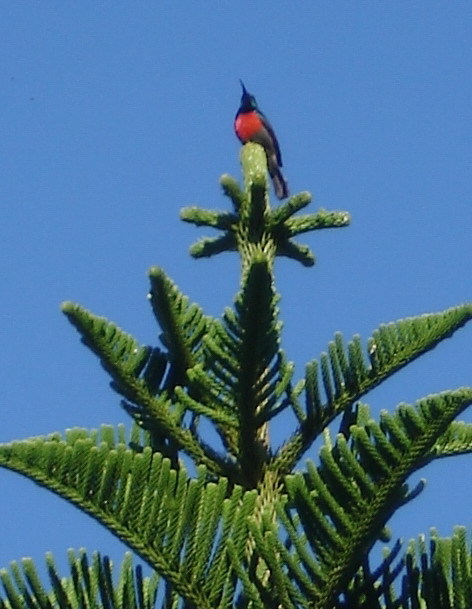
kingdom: Animalia
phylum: Chordata
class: Aves
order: Passeriformes
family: Nectariniidae
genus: Cinnyris
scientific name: Cinnyris afer
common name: Greater double-collared sunbird
